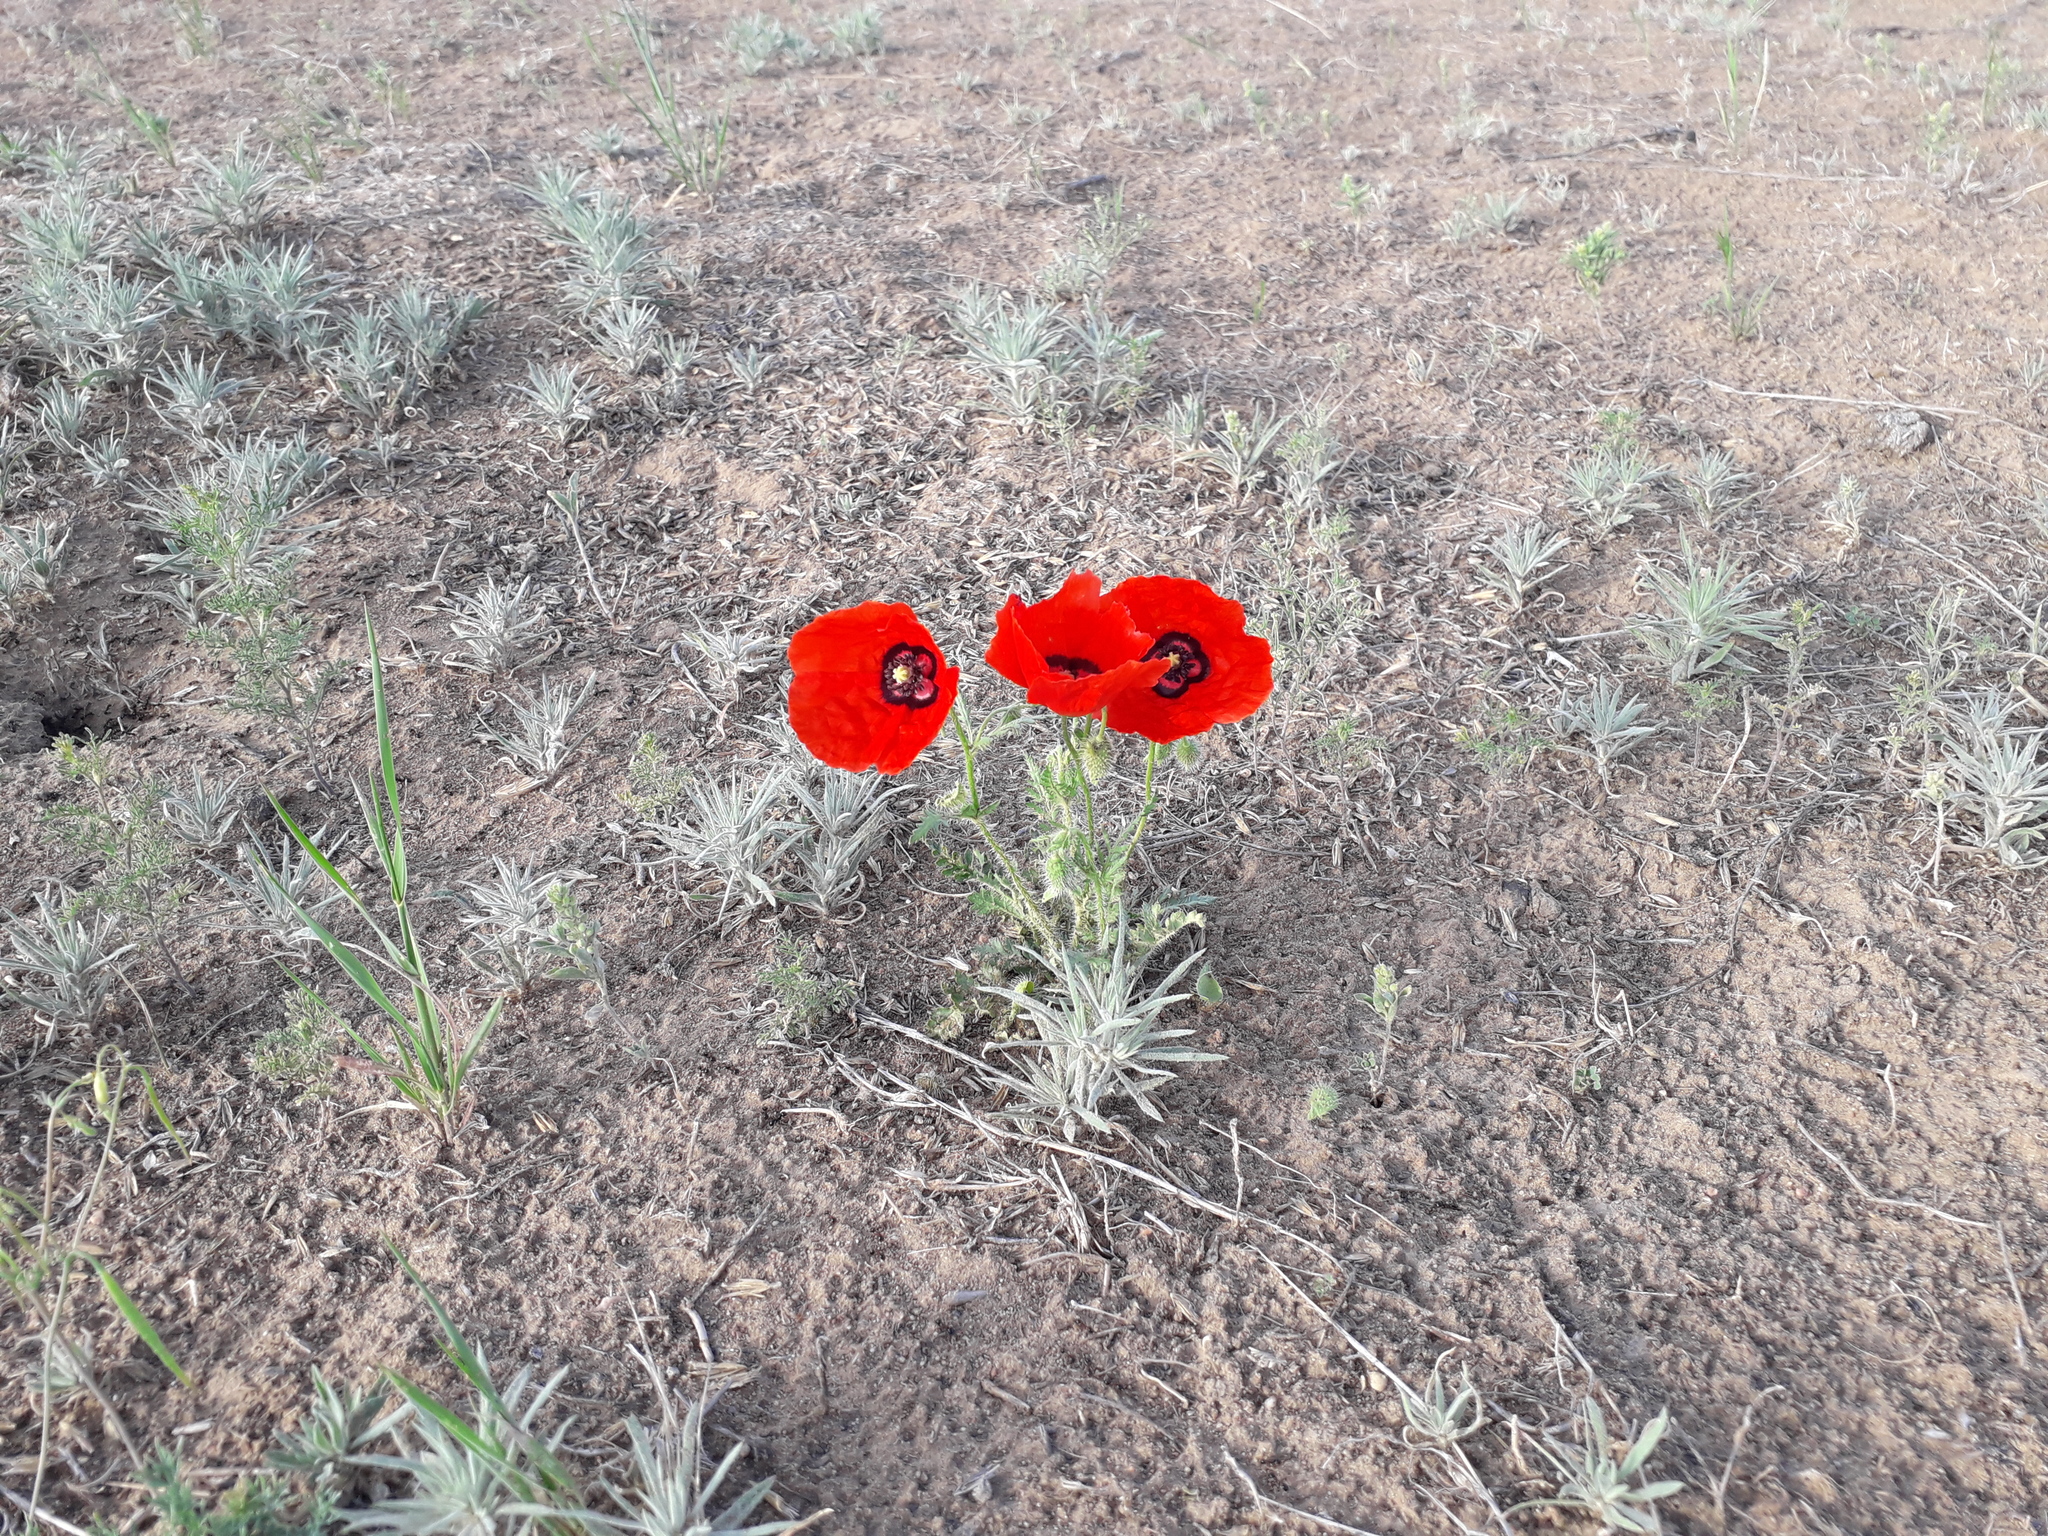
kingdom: Plantae
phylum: Tracheophyta
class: Magnoliopsida
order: Ranunculales
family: Papaveraceae
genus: Roemeria
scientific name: Roemeria pavonina
